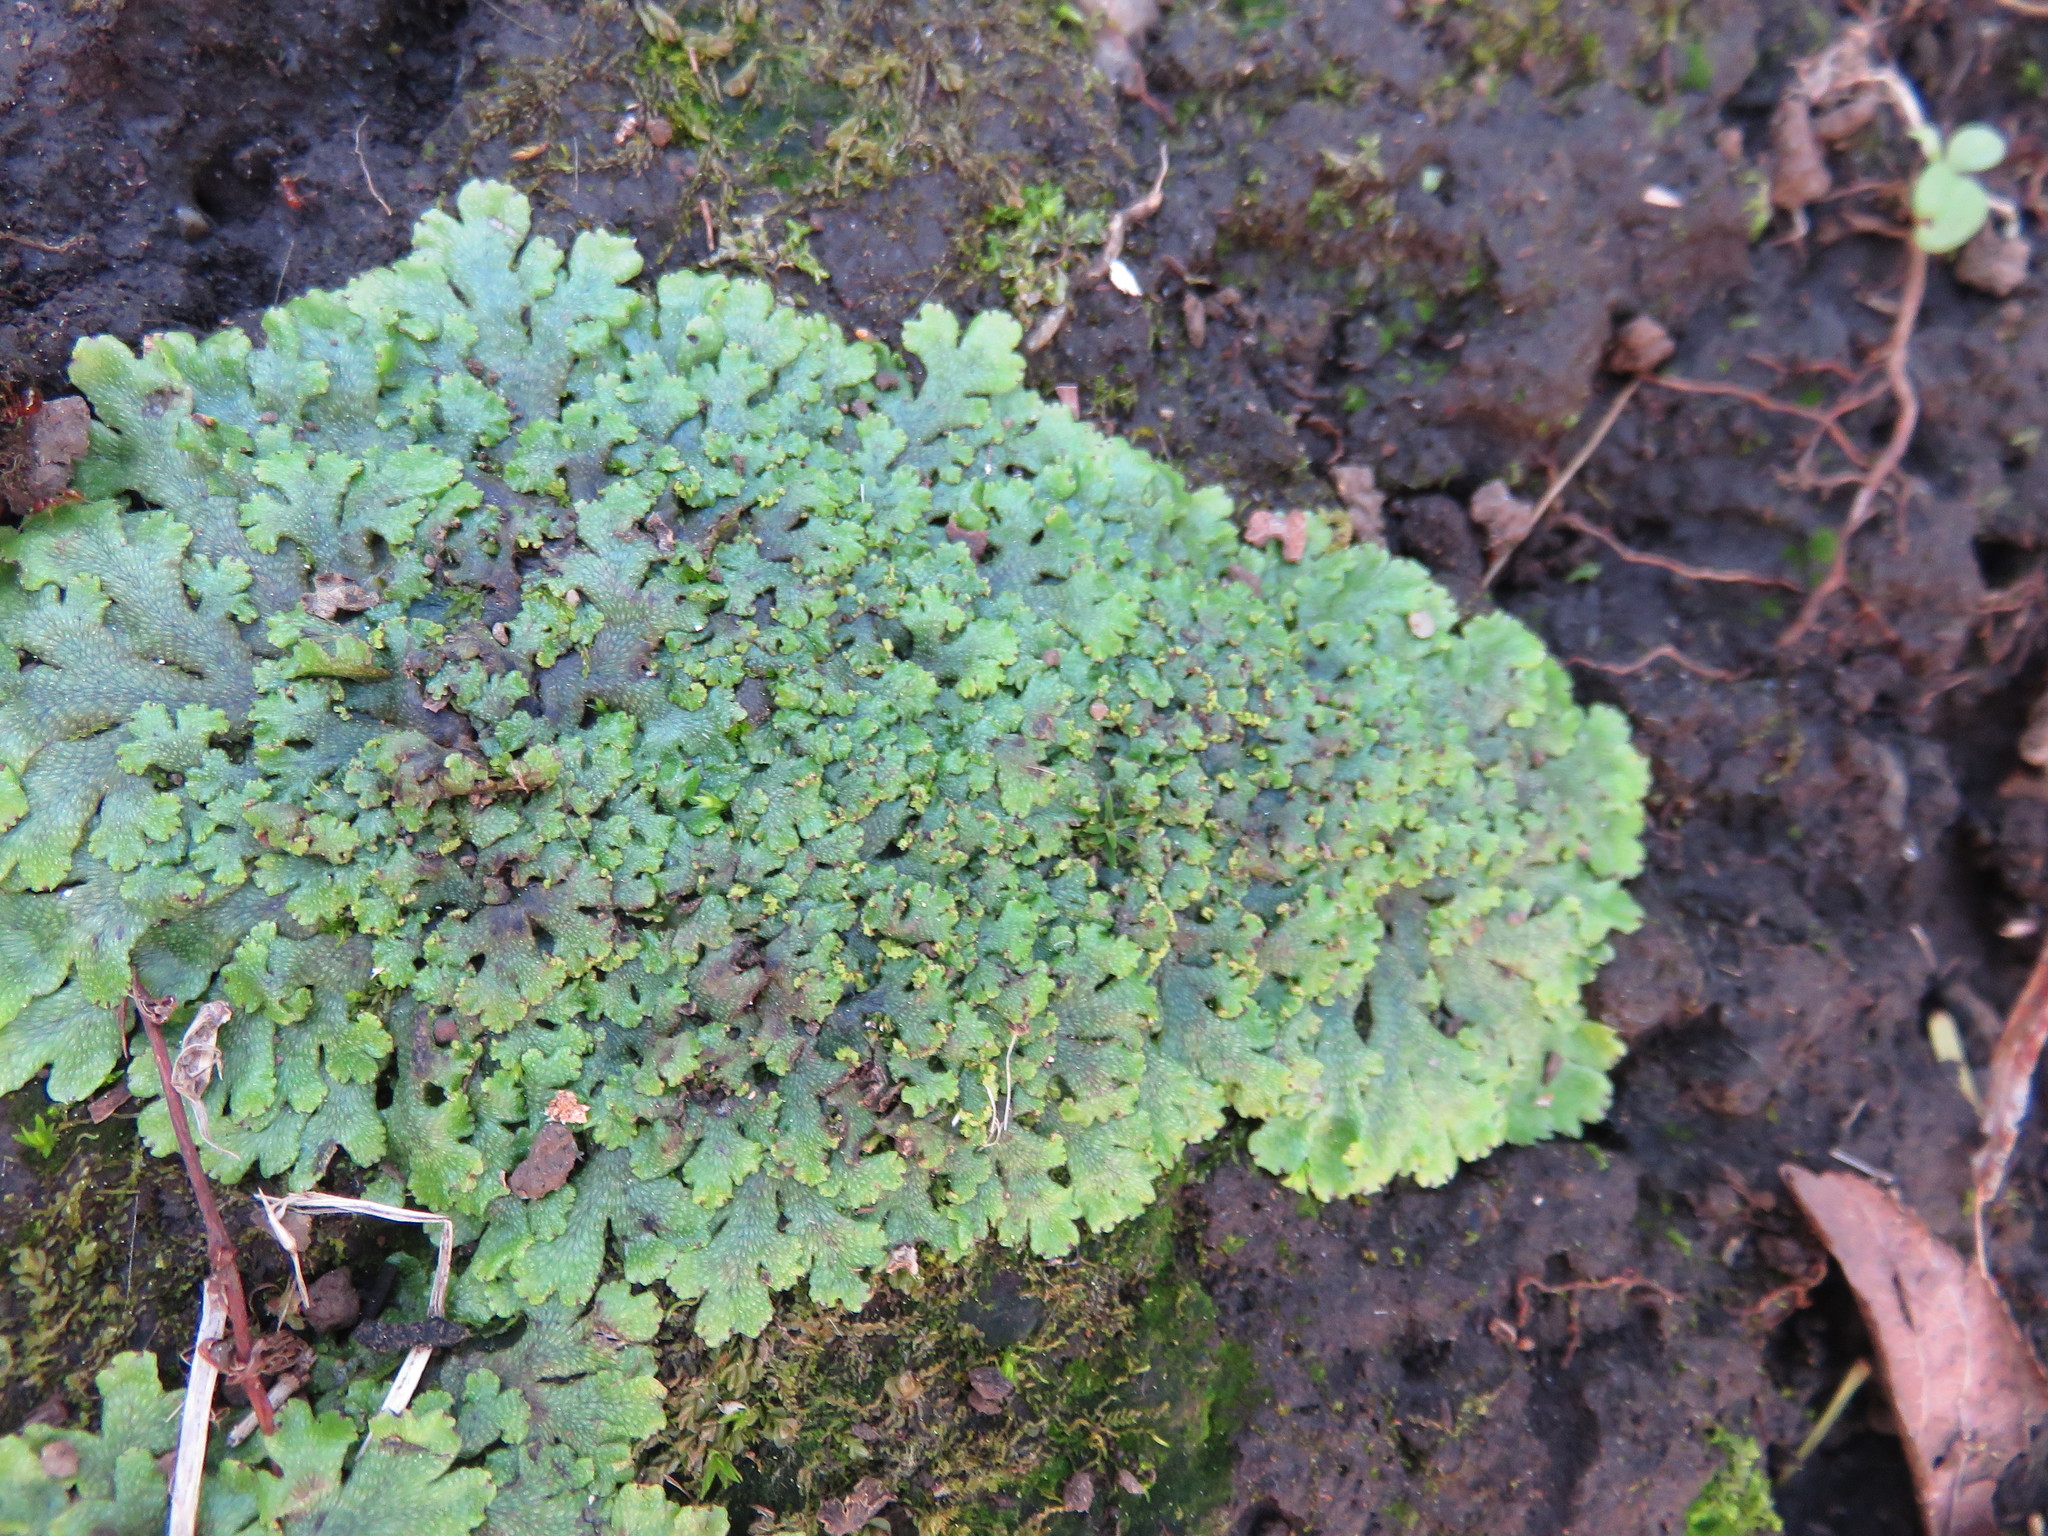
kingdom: Plantae
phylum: Marchantiophyta
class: Marchantiopsida
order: Marchantiales
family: Conocephalaceae
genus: Sandea
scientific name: Sandea japonica
